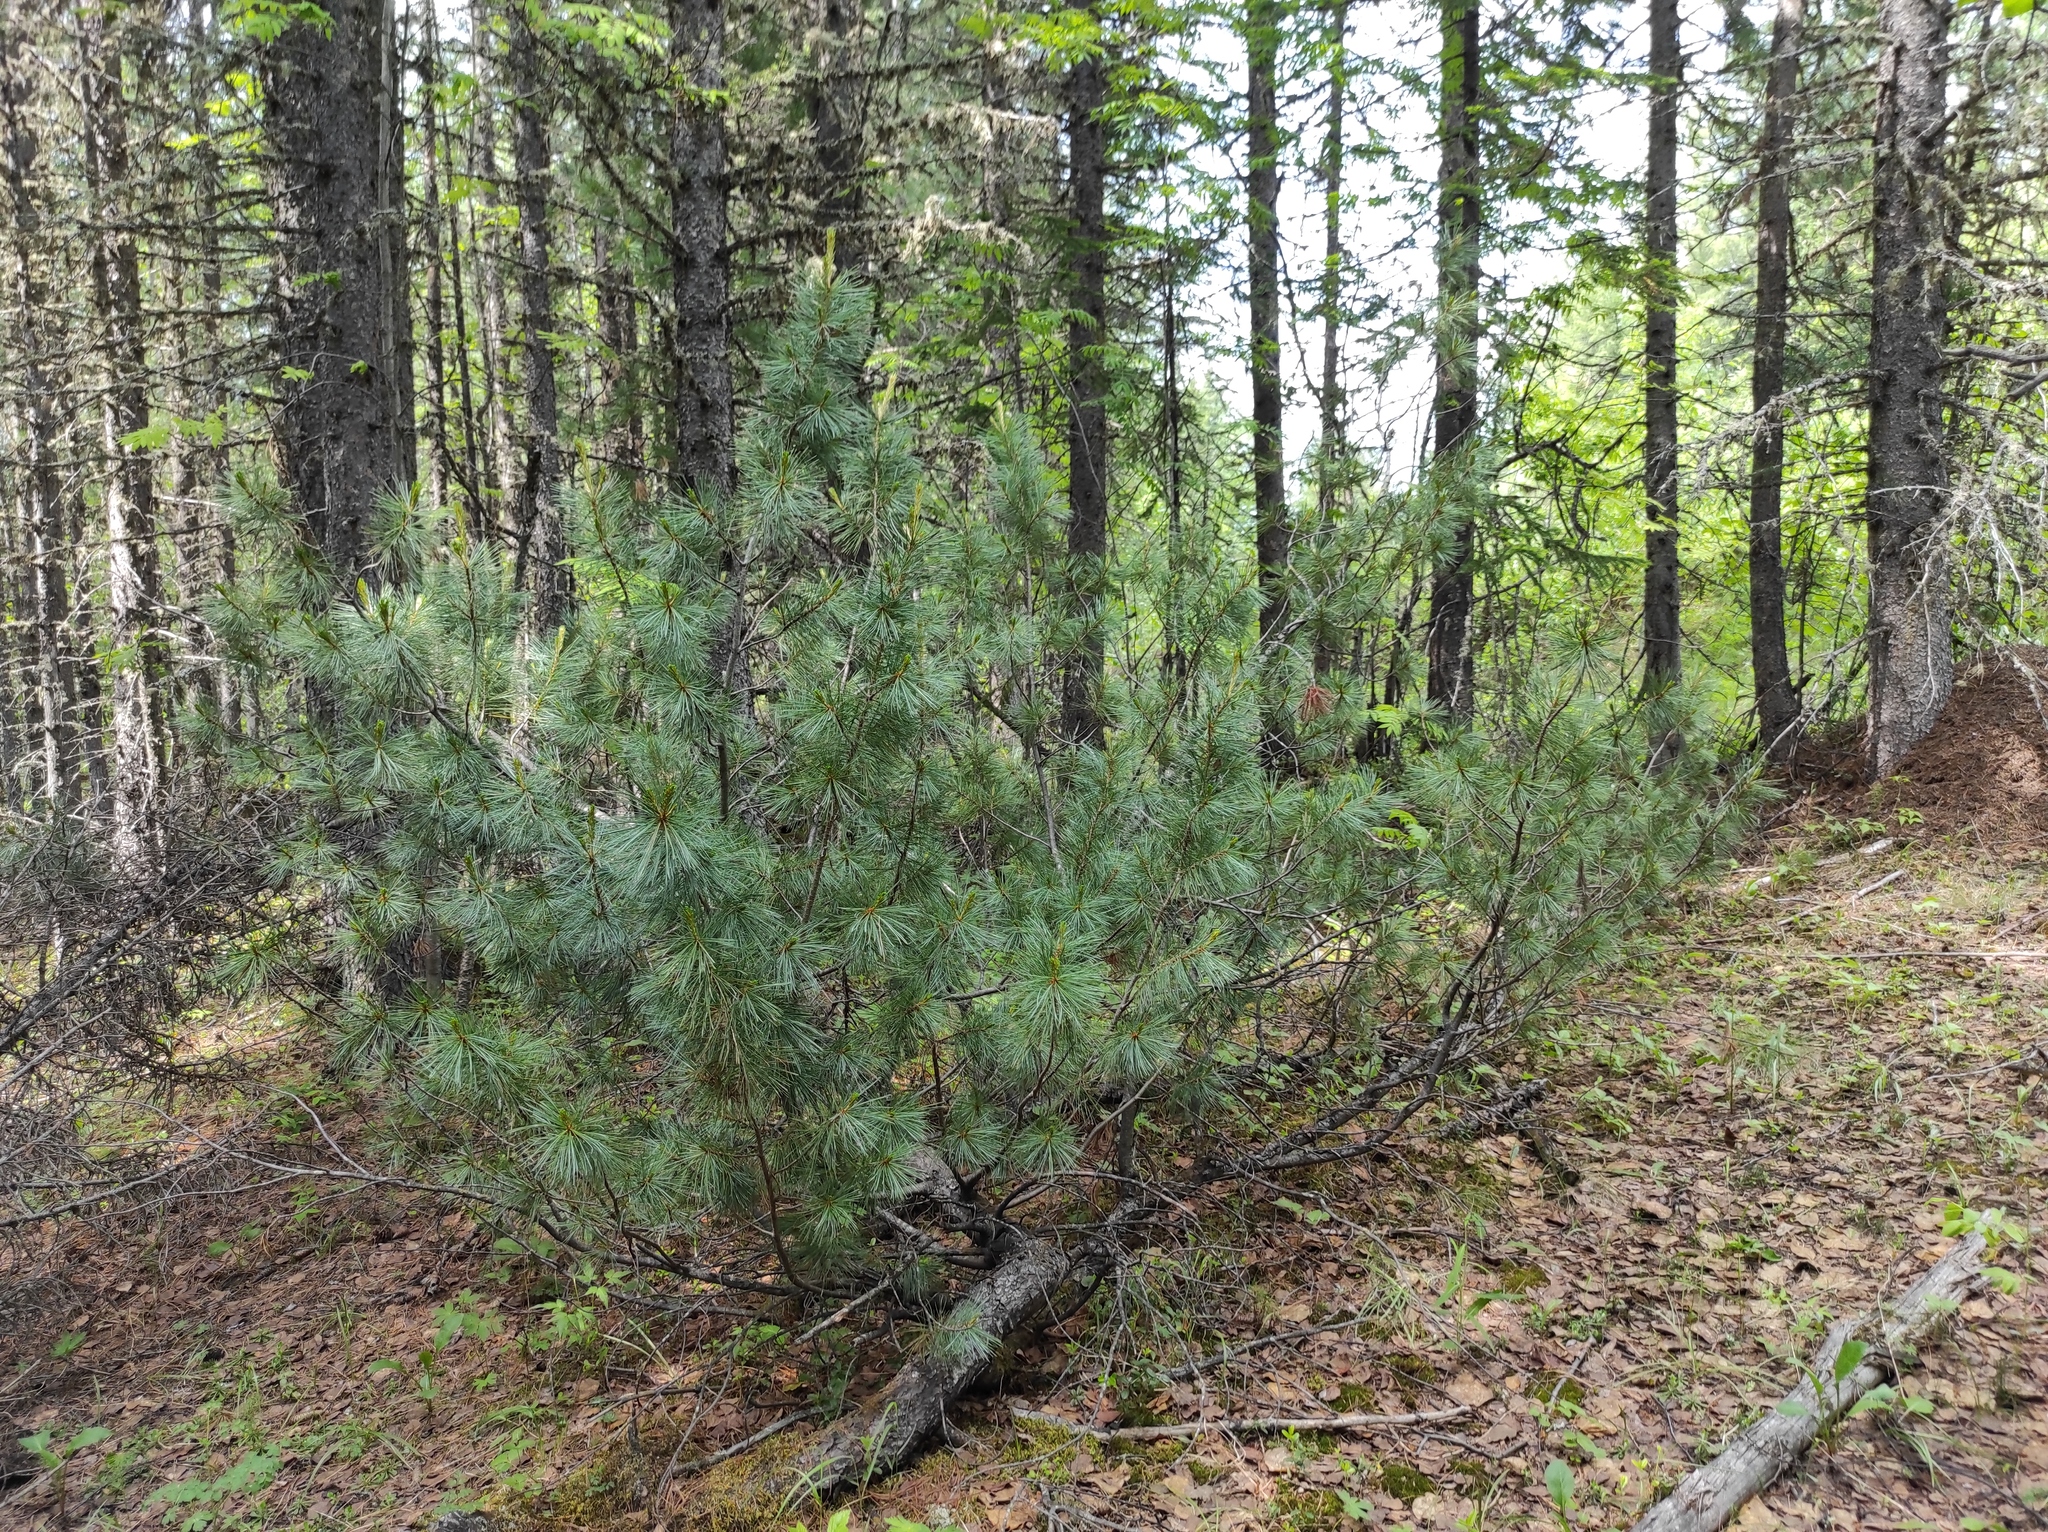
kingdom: Plantae
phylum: Tracheophyta
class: Pinopsida
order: Pinales
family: Pinaceae
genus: Picea
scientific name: Picea obovata
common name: Siberian spruce
